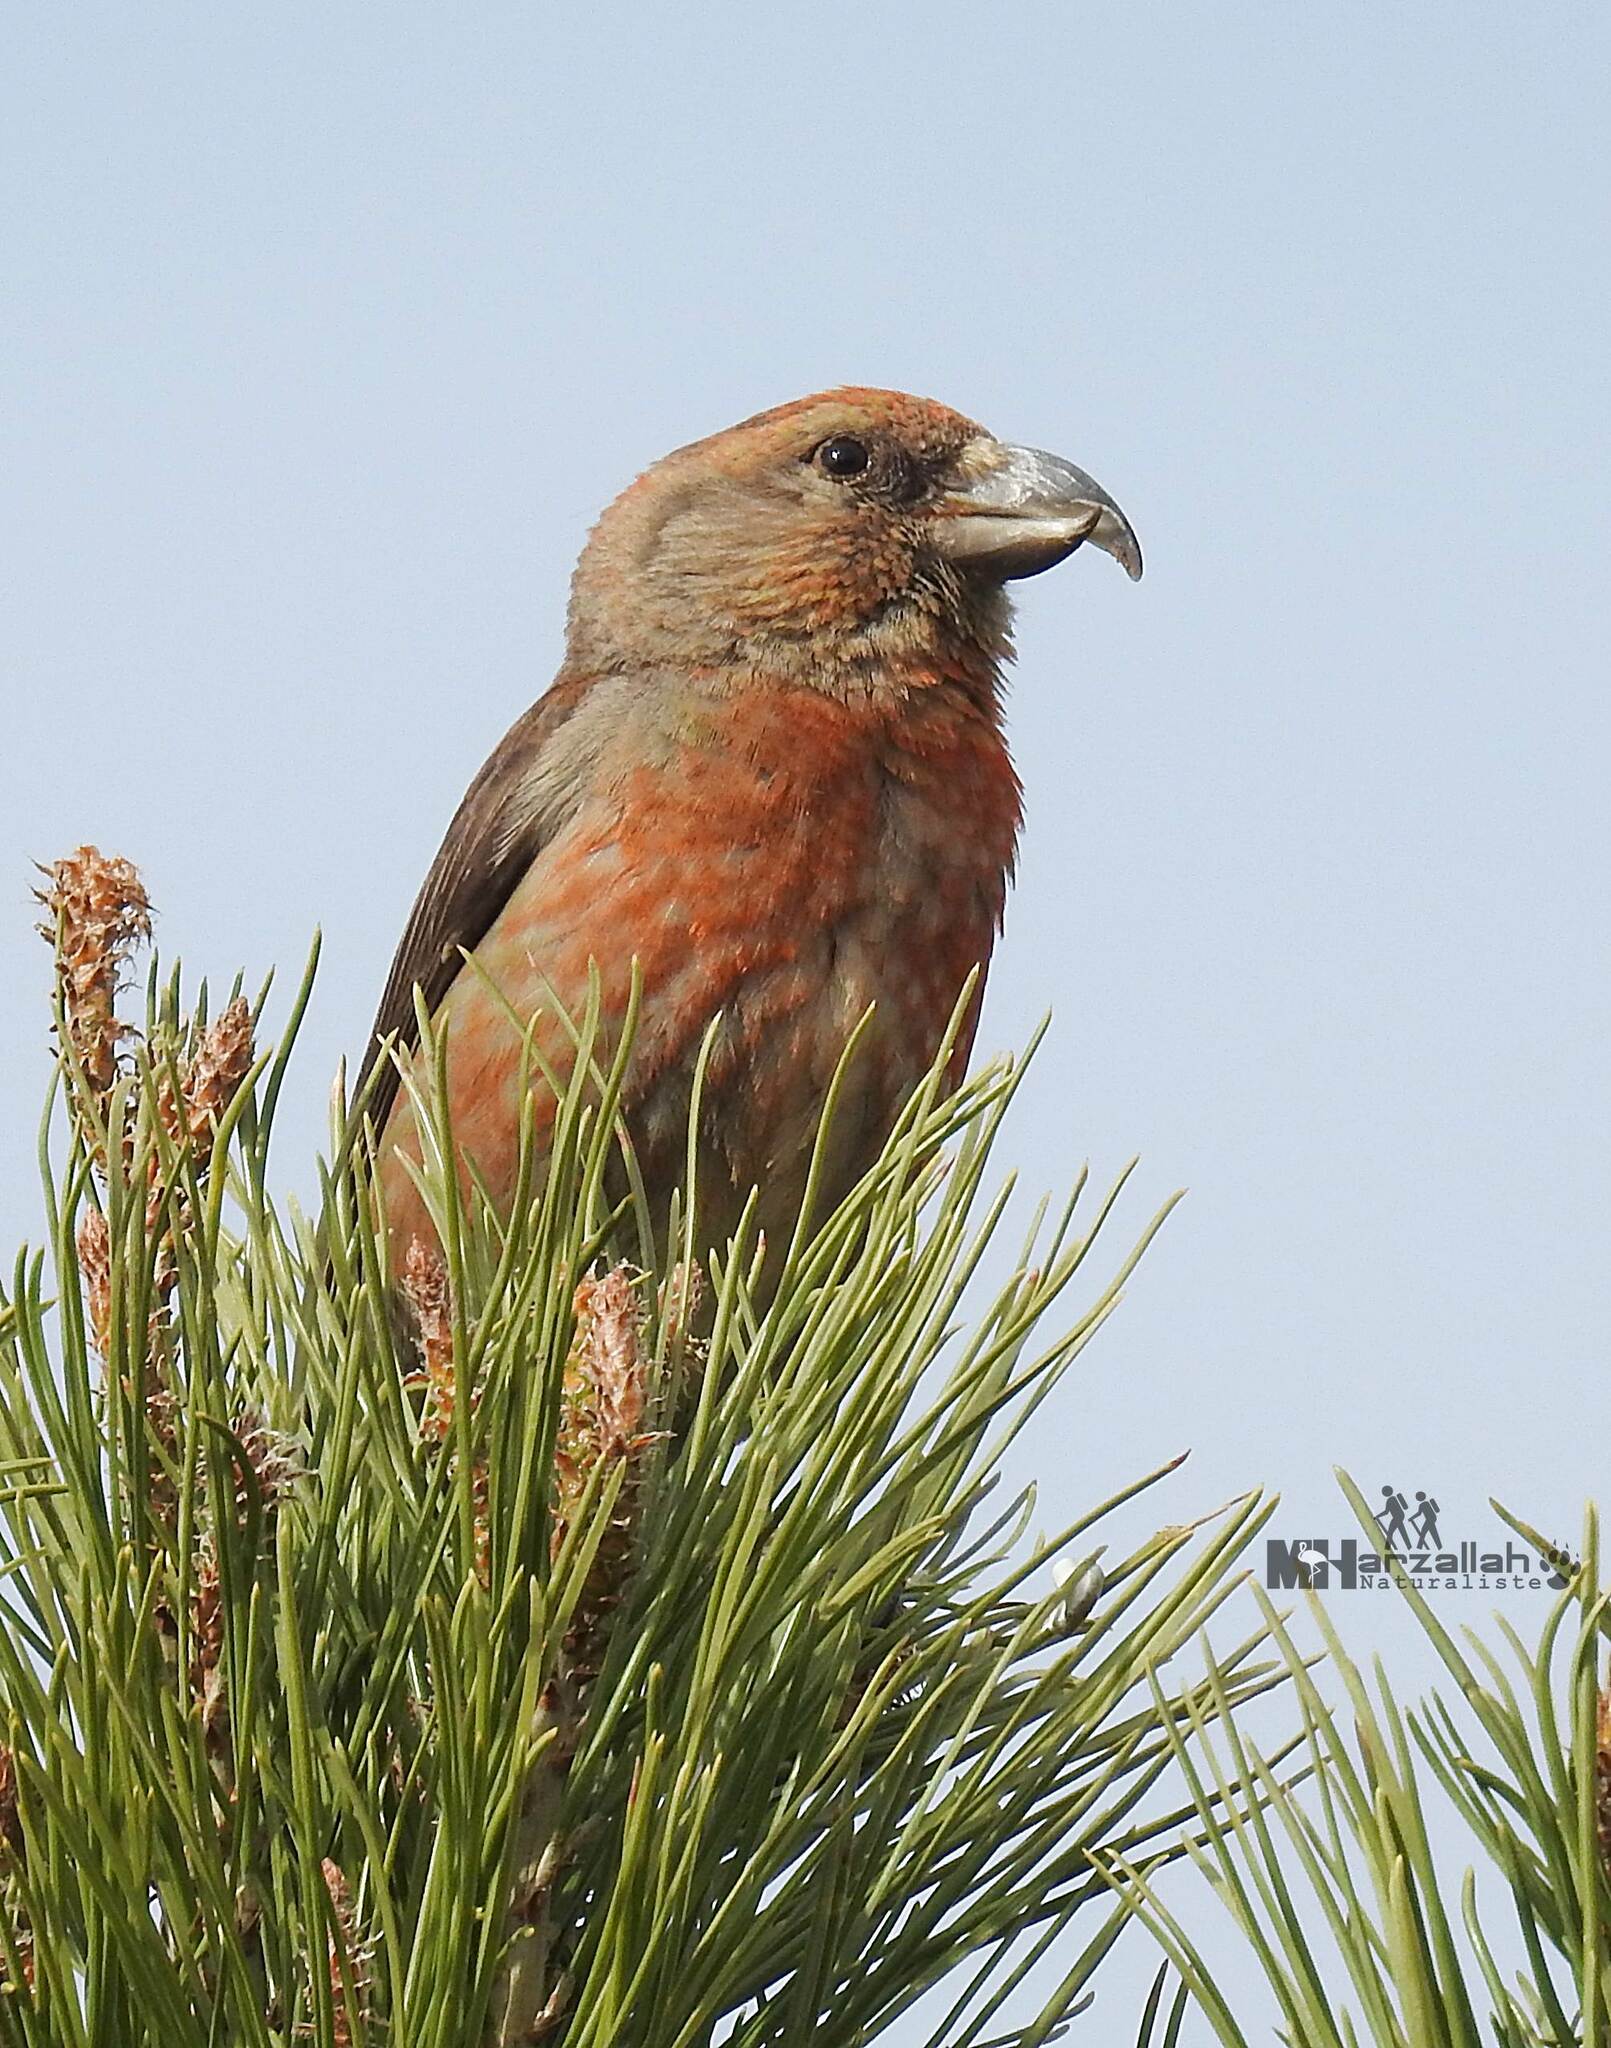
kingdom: Animalia
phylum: Chordata
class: Aves
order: Passeriformes
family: Fringillidae
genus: Loxia
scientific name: Loxia curvirostra
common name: Red crossbill
